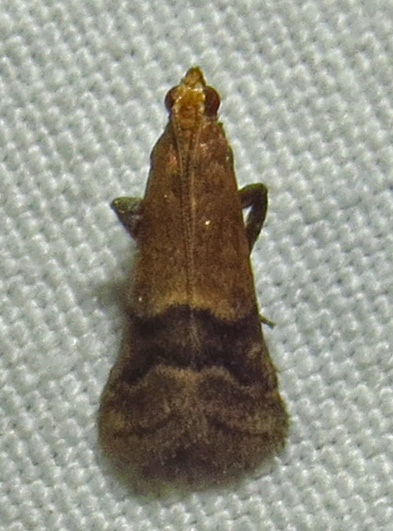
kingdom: Animalia
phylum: Arthropoda
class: Insecta
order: Lepidoptera
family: Pyralidae
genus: Eulogia
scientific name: Eulogia ochrifrontella
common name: Broad-banded eulogia moth
